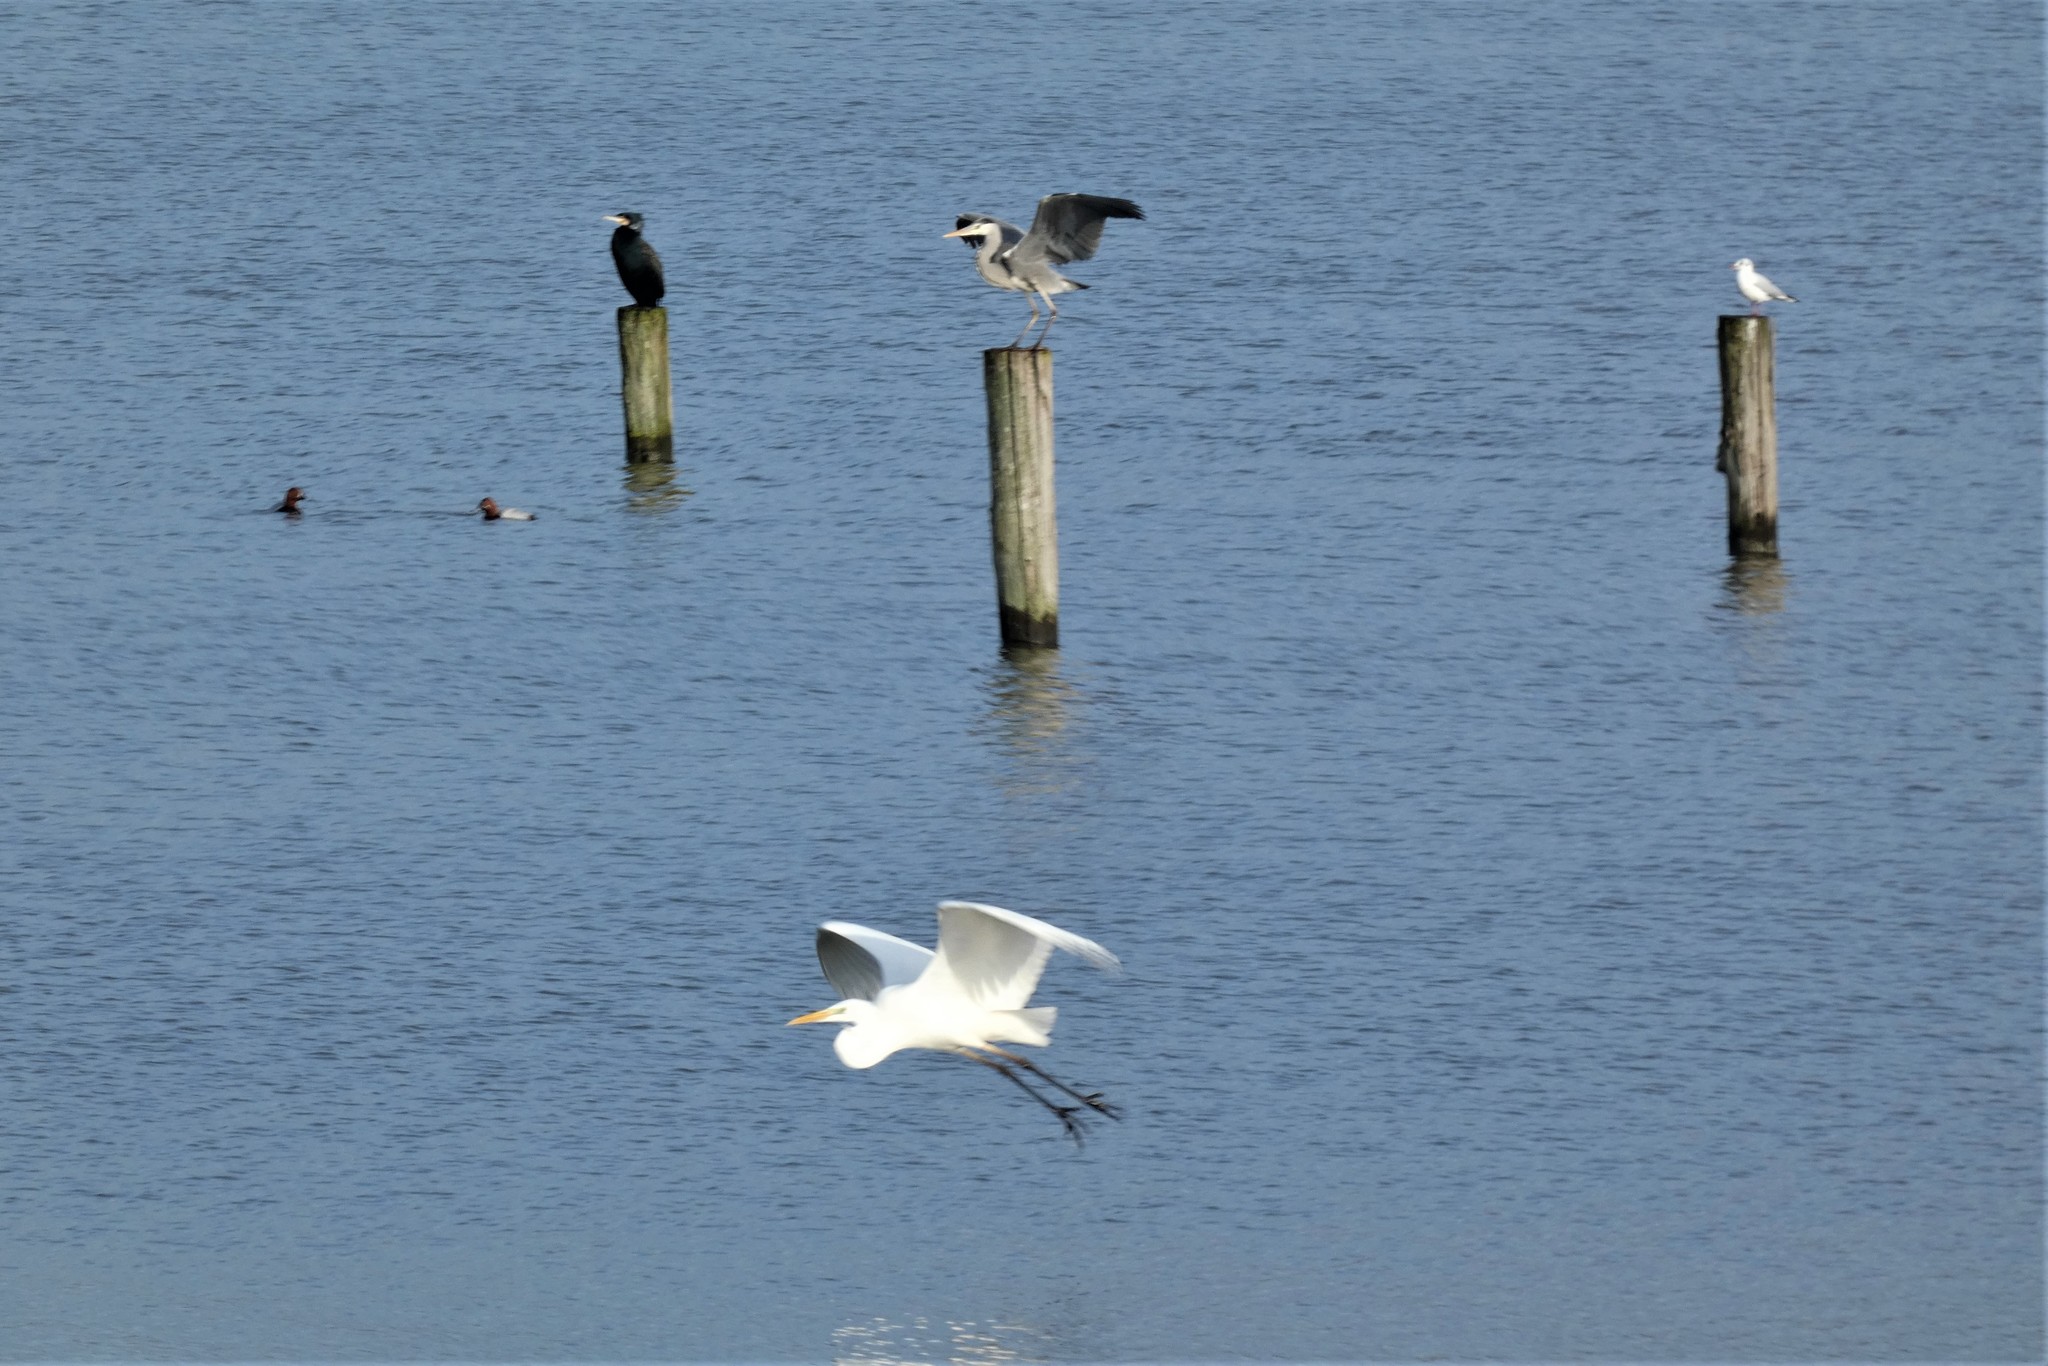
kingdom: Animalia
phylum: Chordata
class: Aves
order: Pelecaniformes
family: Ardeidae
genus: Ardea
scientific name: Ardea alba
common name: Great egret
